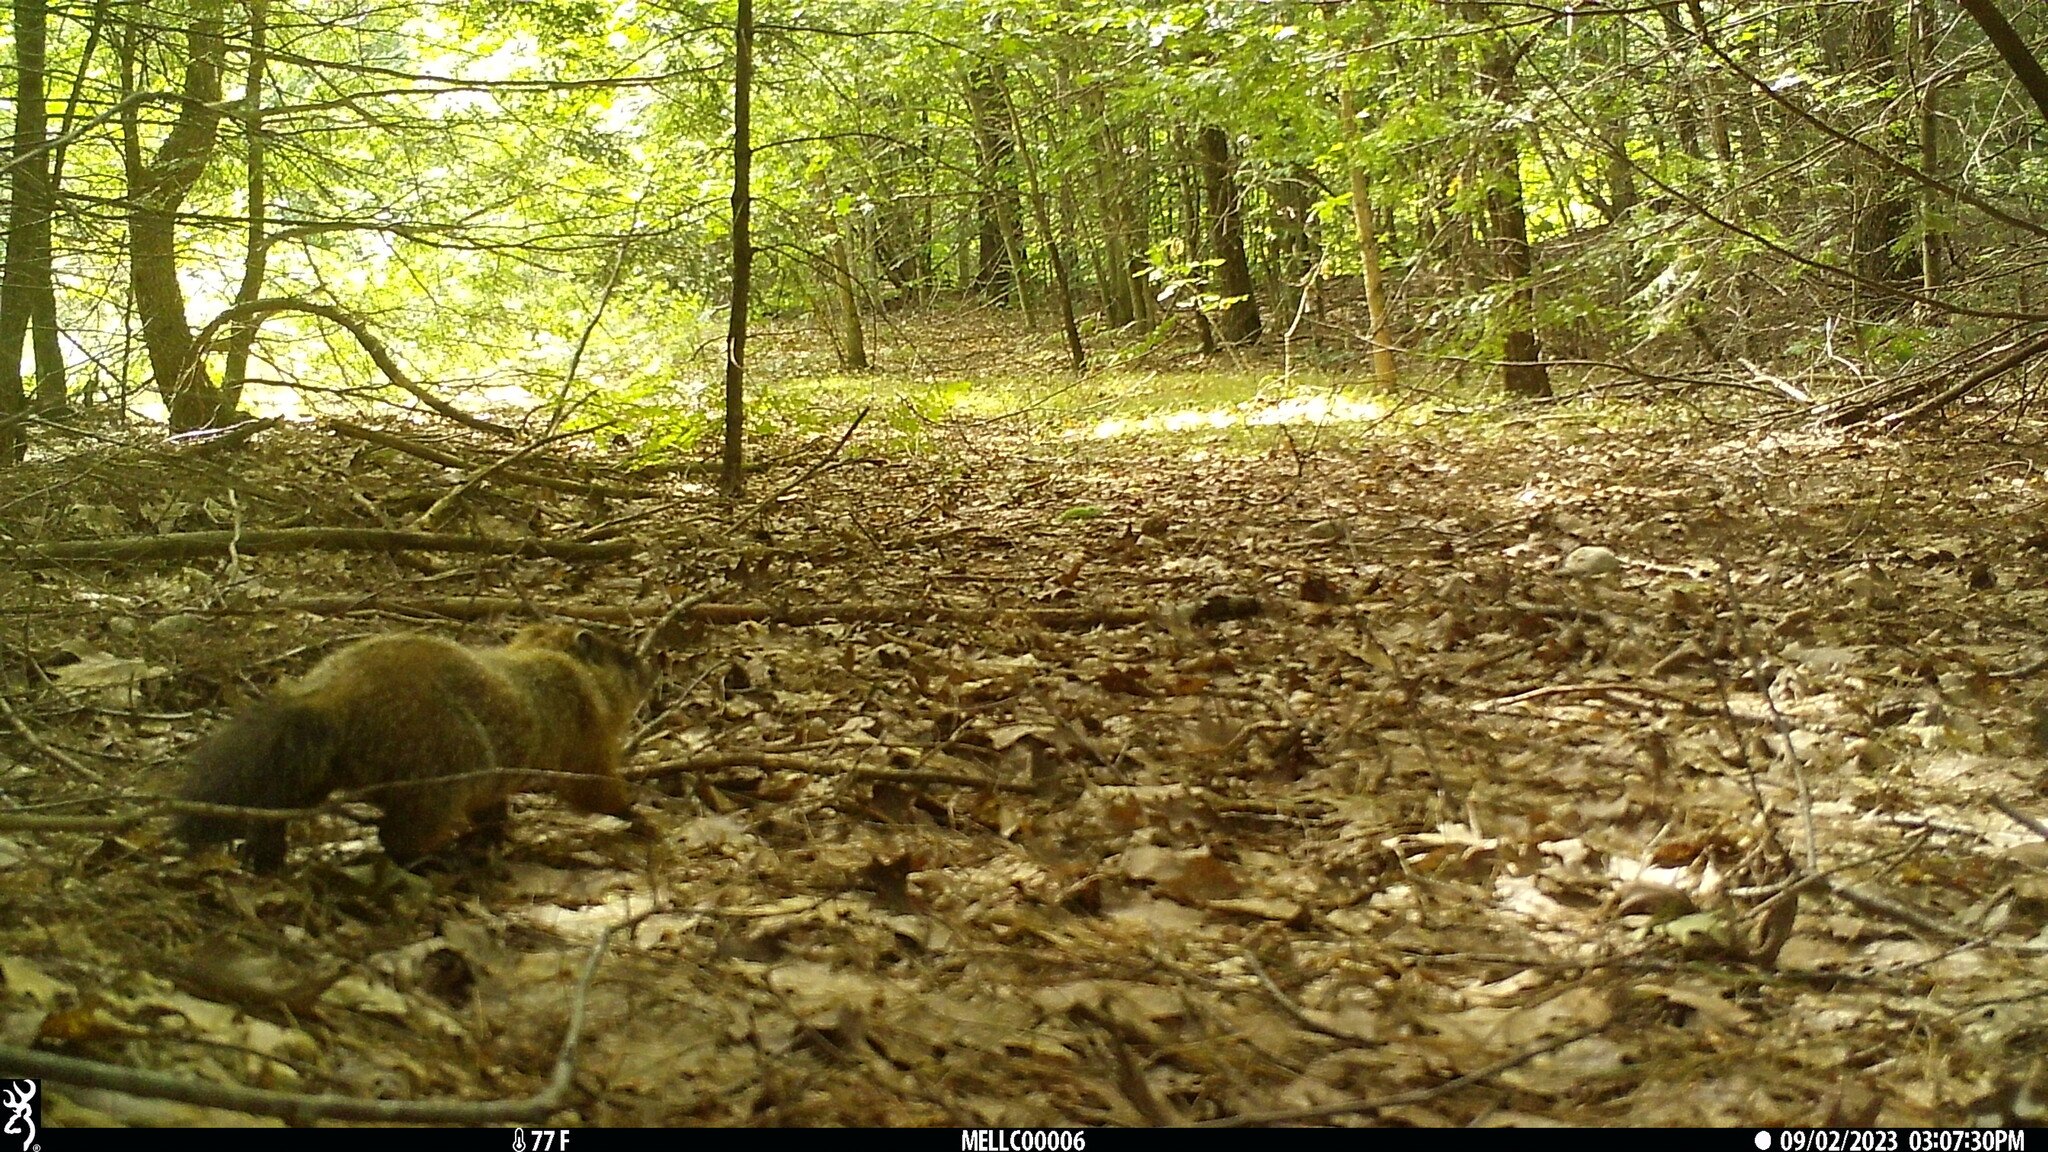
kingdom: Animalia
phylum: Chordata
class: Mammalia
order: Rodentia
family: Sciuridae
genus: Marmota
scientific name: Marmota monax
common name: Groundhog
